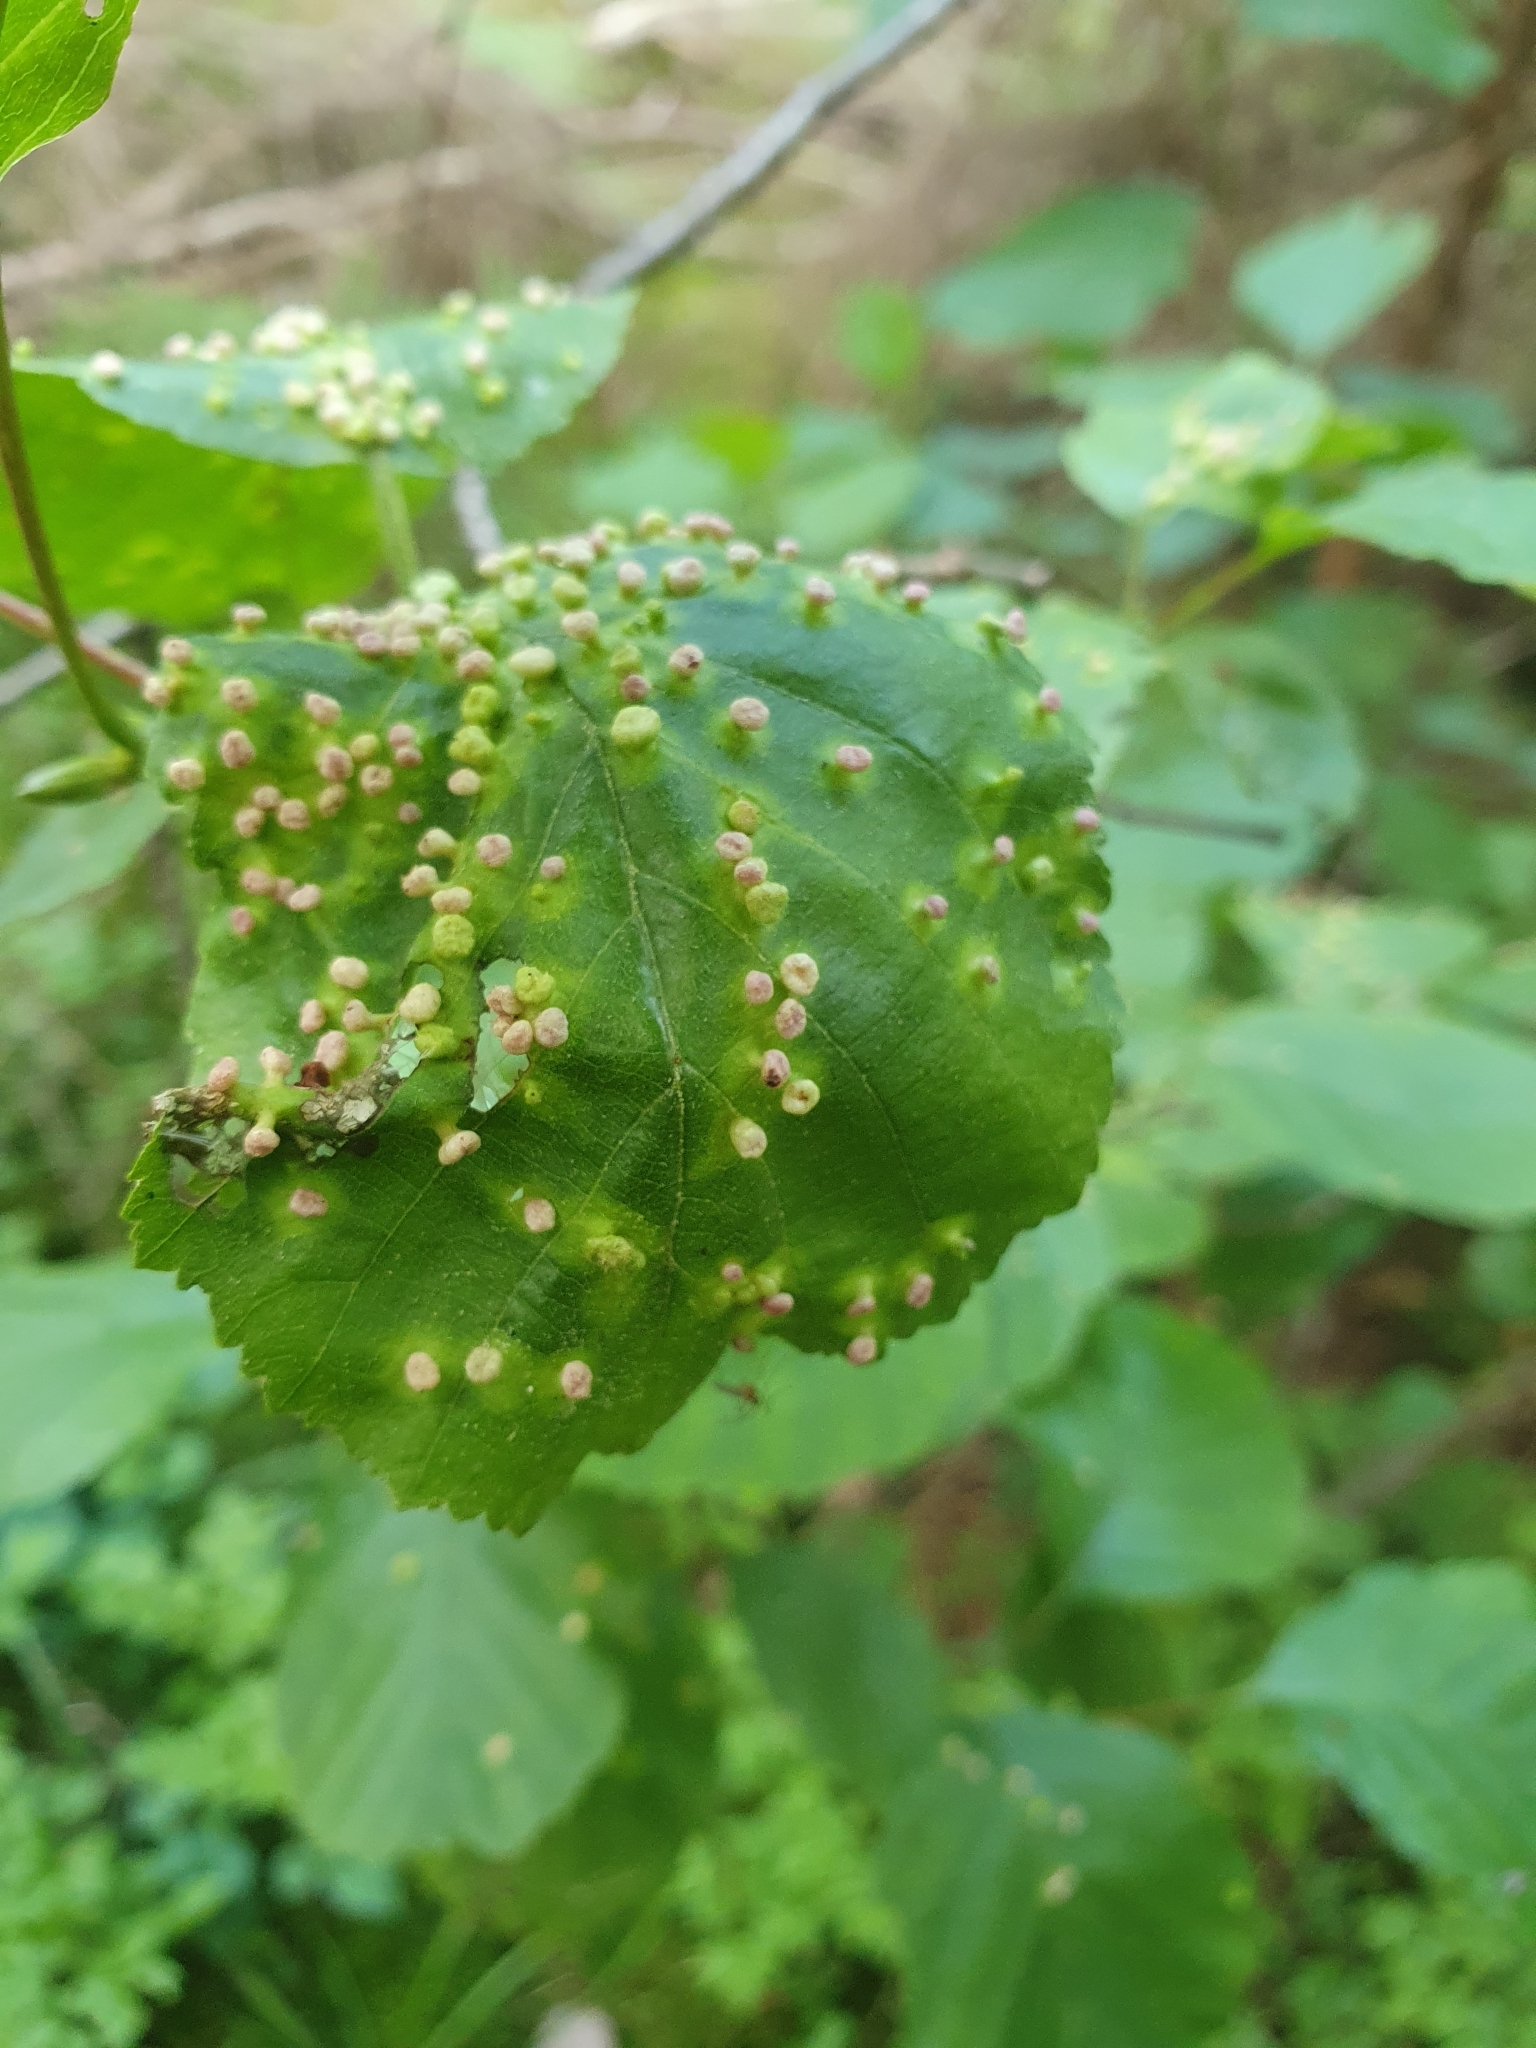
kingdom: Animalia
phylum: Arthropoda
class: Arachnida
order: Trombidiformes
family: Eriophyidae
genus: Eriophyes
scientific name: Eriophyes laevis
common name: Alder leaf gall mite
